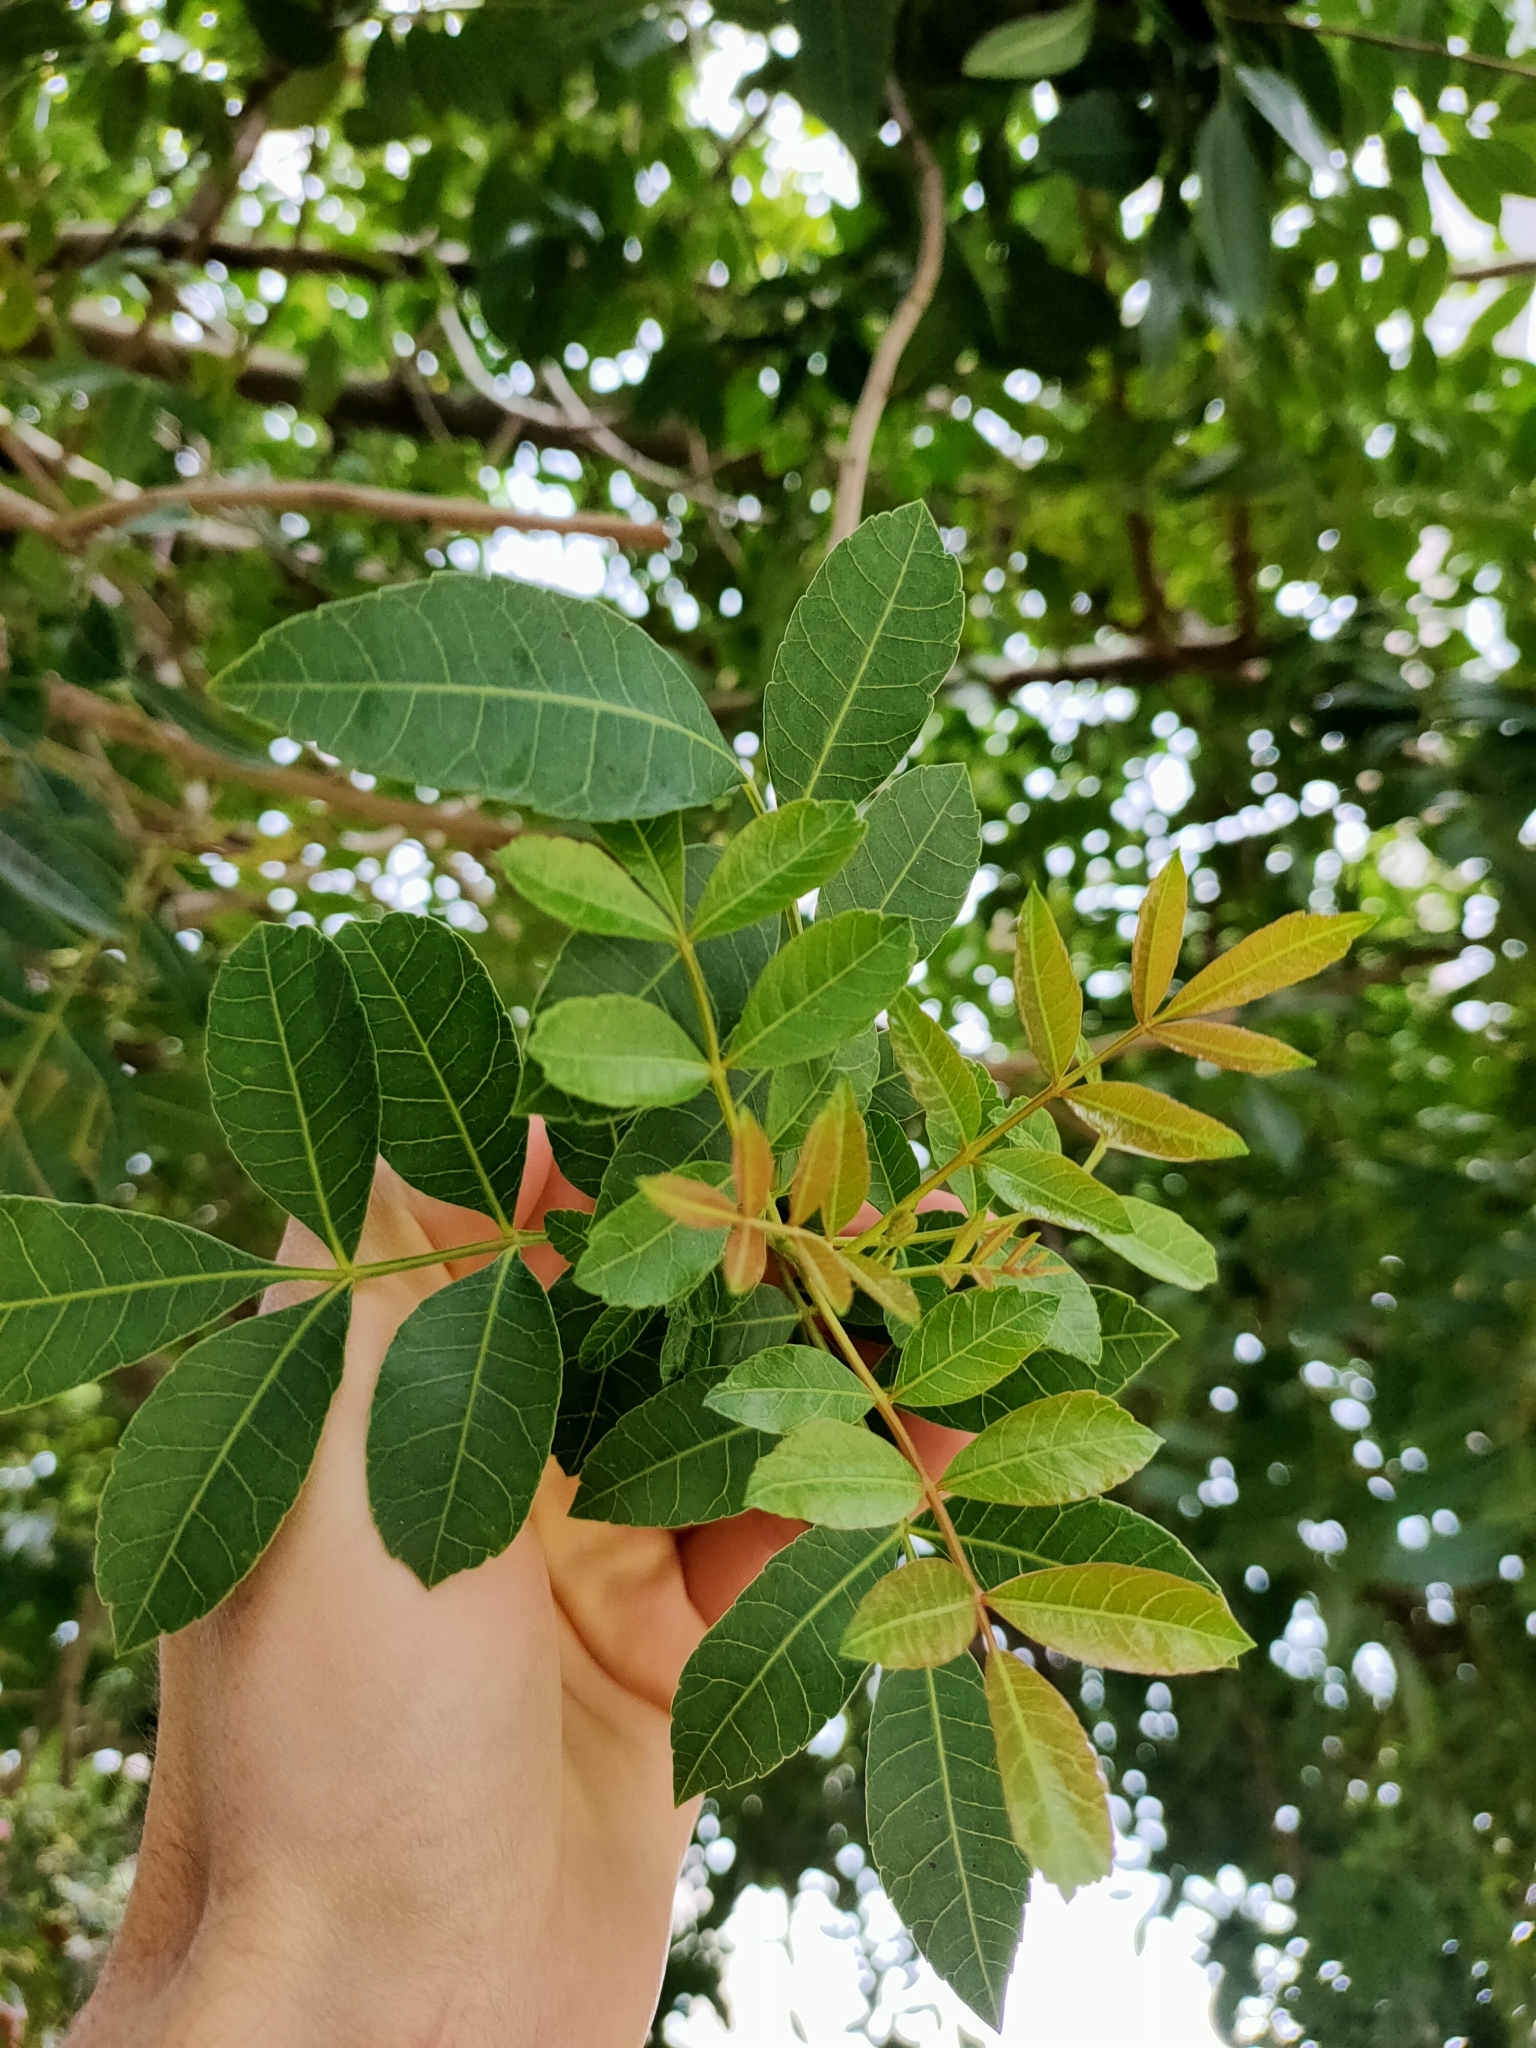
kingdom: Plantae
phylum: Tracheophyta
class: Magnoliopsida
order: Sapindales
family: Anacardiaceae
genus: Schinus
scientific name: Schinus terebinthifolia
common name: Brazilian peppertree
